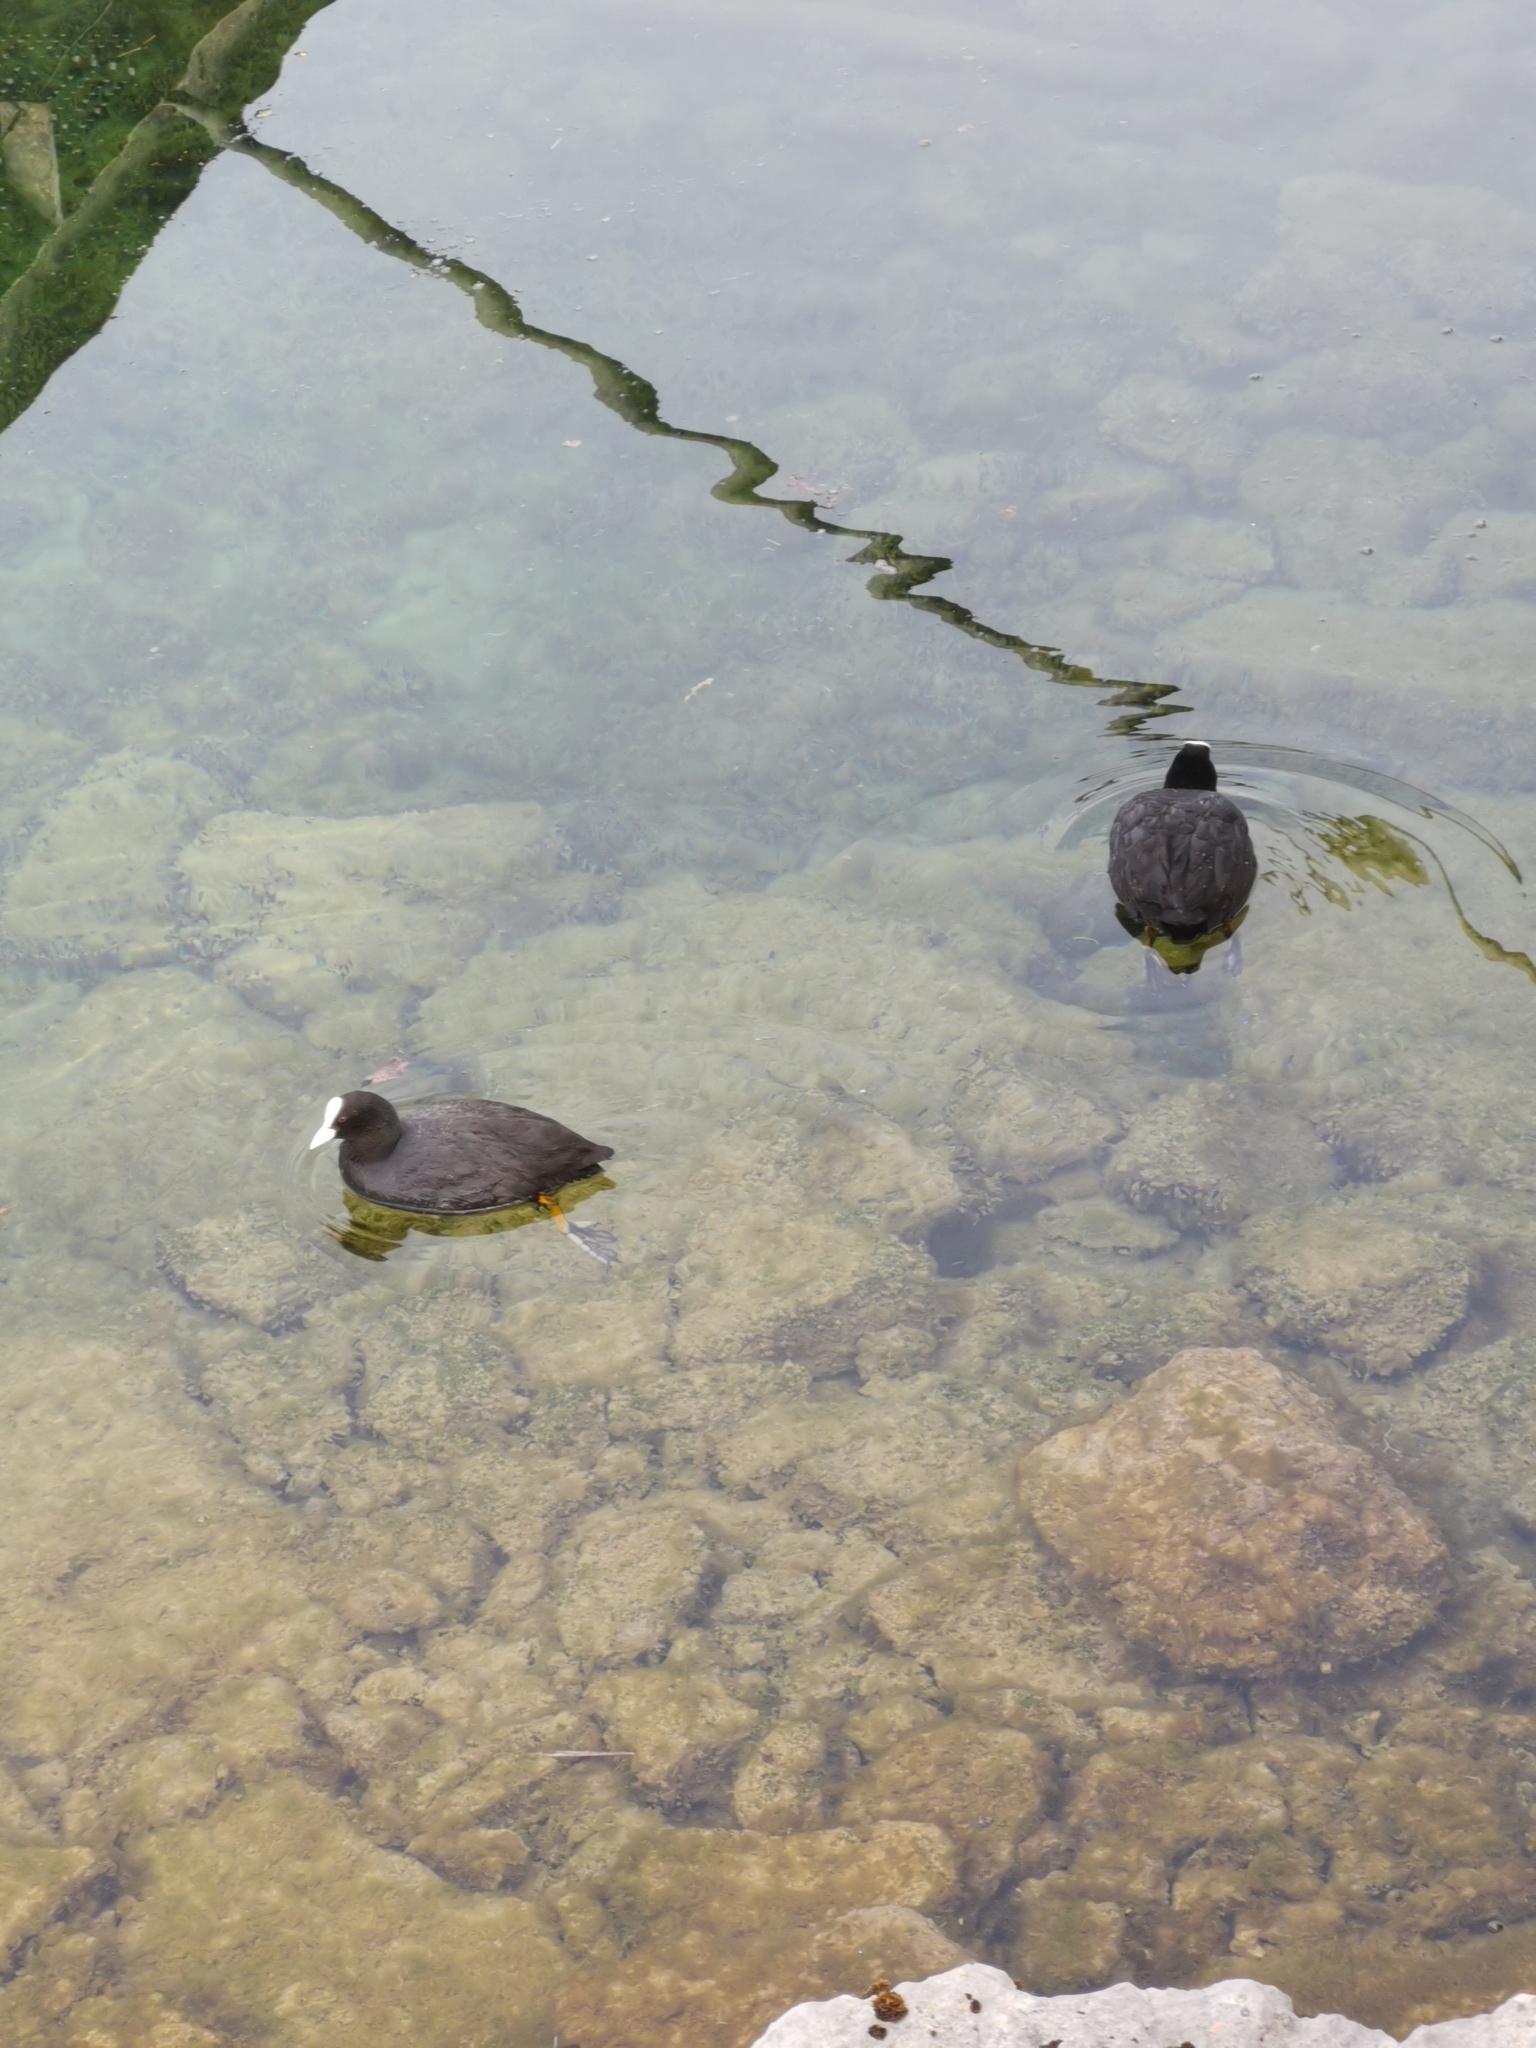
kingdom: Animalia
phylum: Chordata
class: Aves
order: Gruiformes
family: Rallidae
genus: Fulica
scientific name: Fulica atra
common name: Eurasian coot
